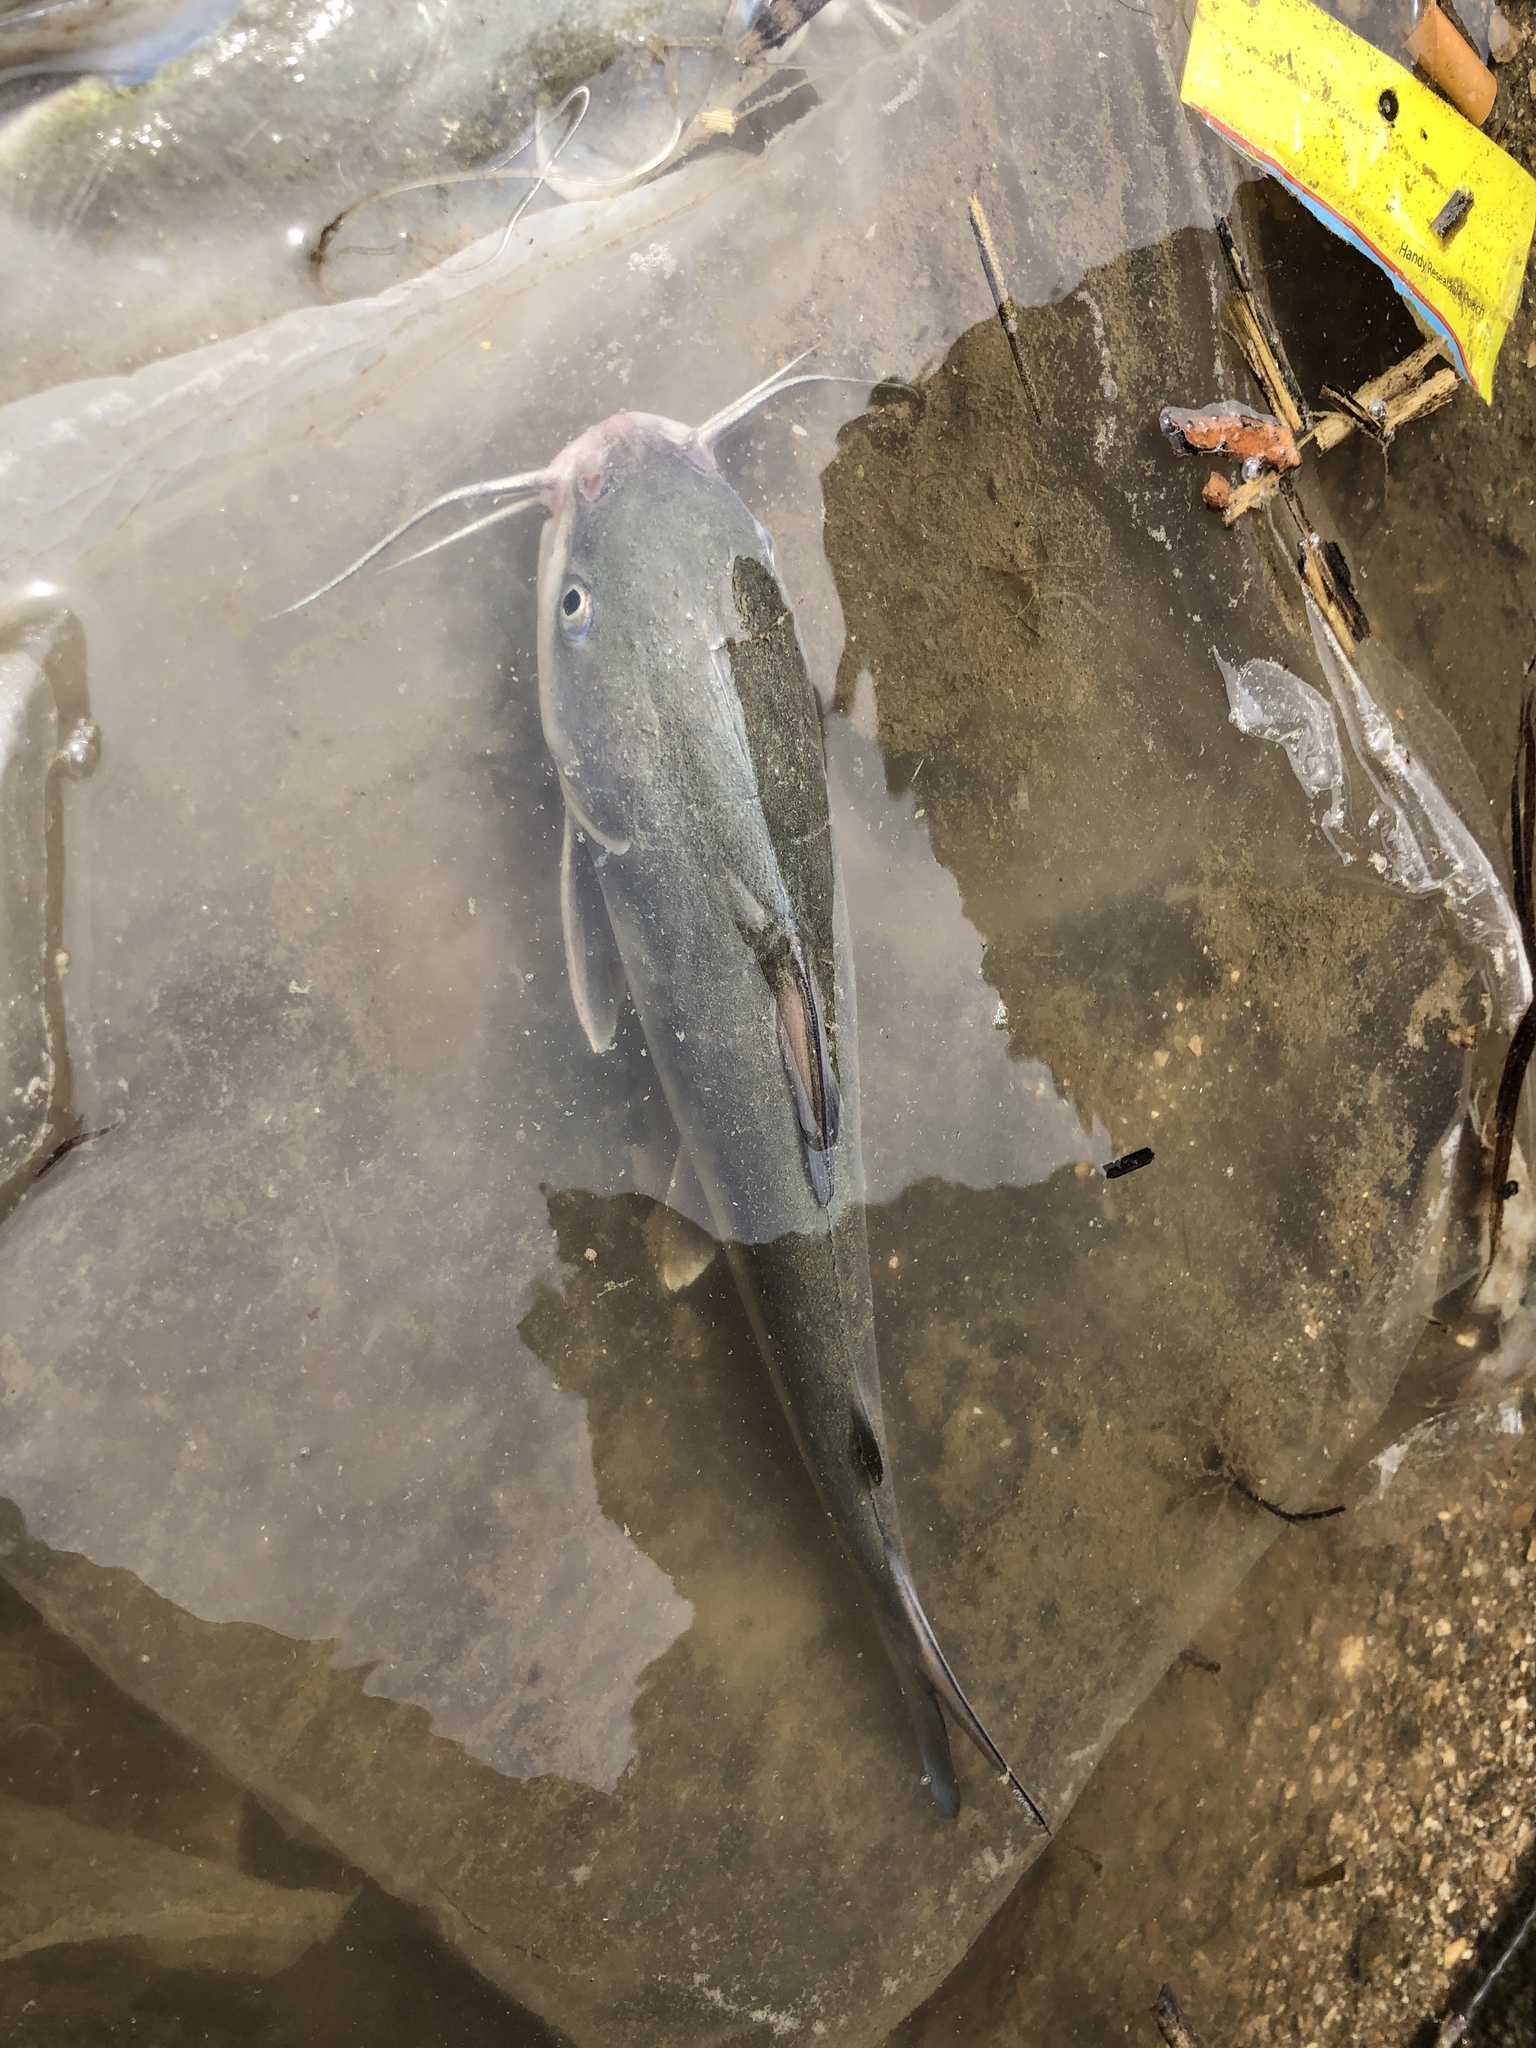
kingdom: Animalia
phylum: Chordata
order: Siluriformes
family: Ariidae
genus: Ariopsis
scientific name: Ariopsis felis
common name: Hardhead catfish
